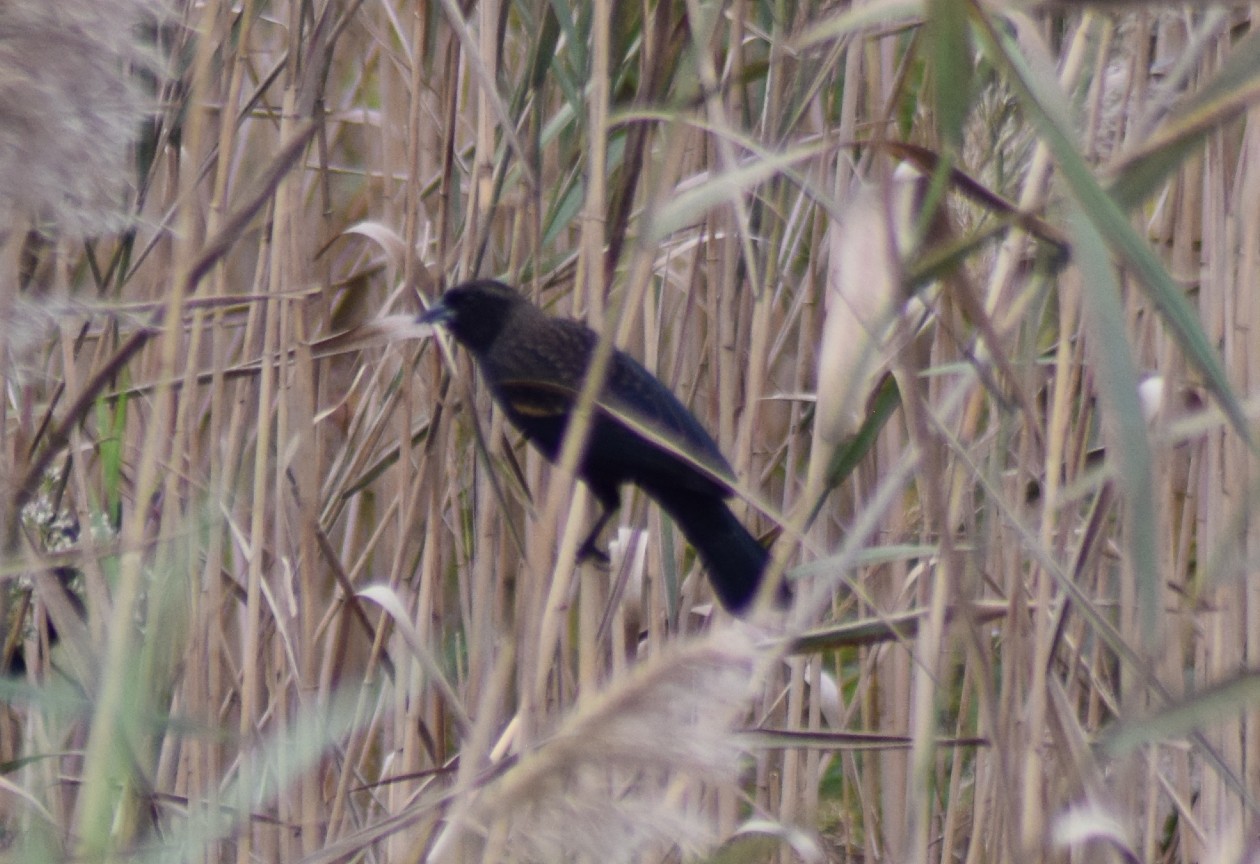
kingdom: Animalia
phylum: Chordata
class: Aves
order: Passeriformes
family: Icteridae
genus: Agelaius
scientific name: Agelaius phoeniceus
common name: Red-winged blackbird
